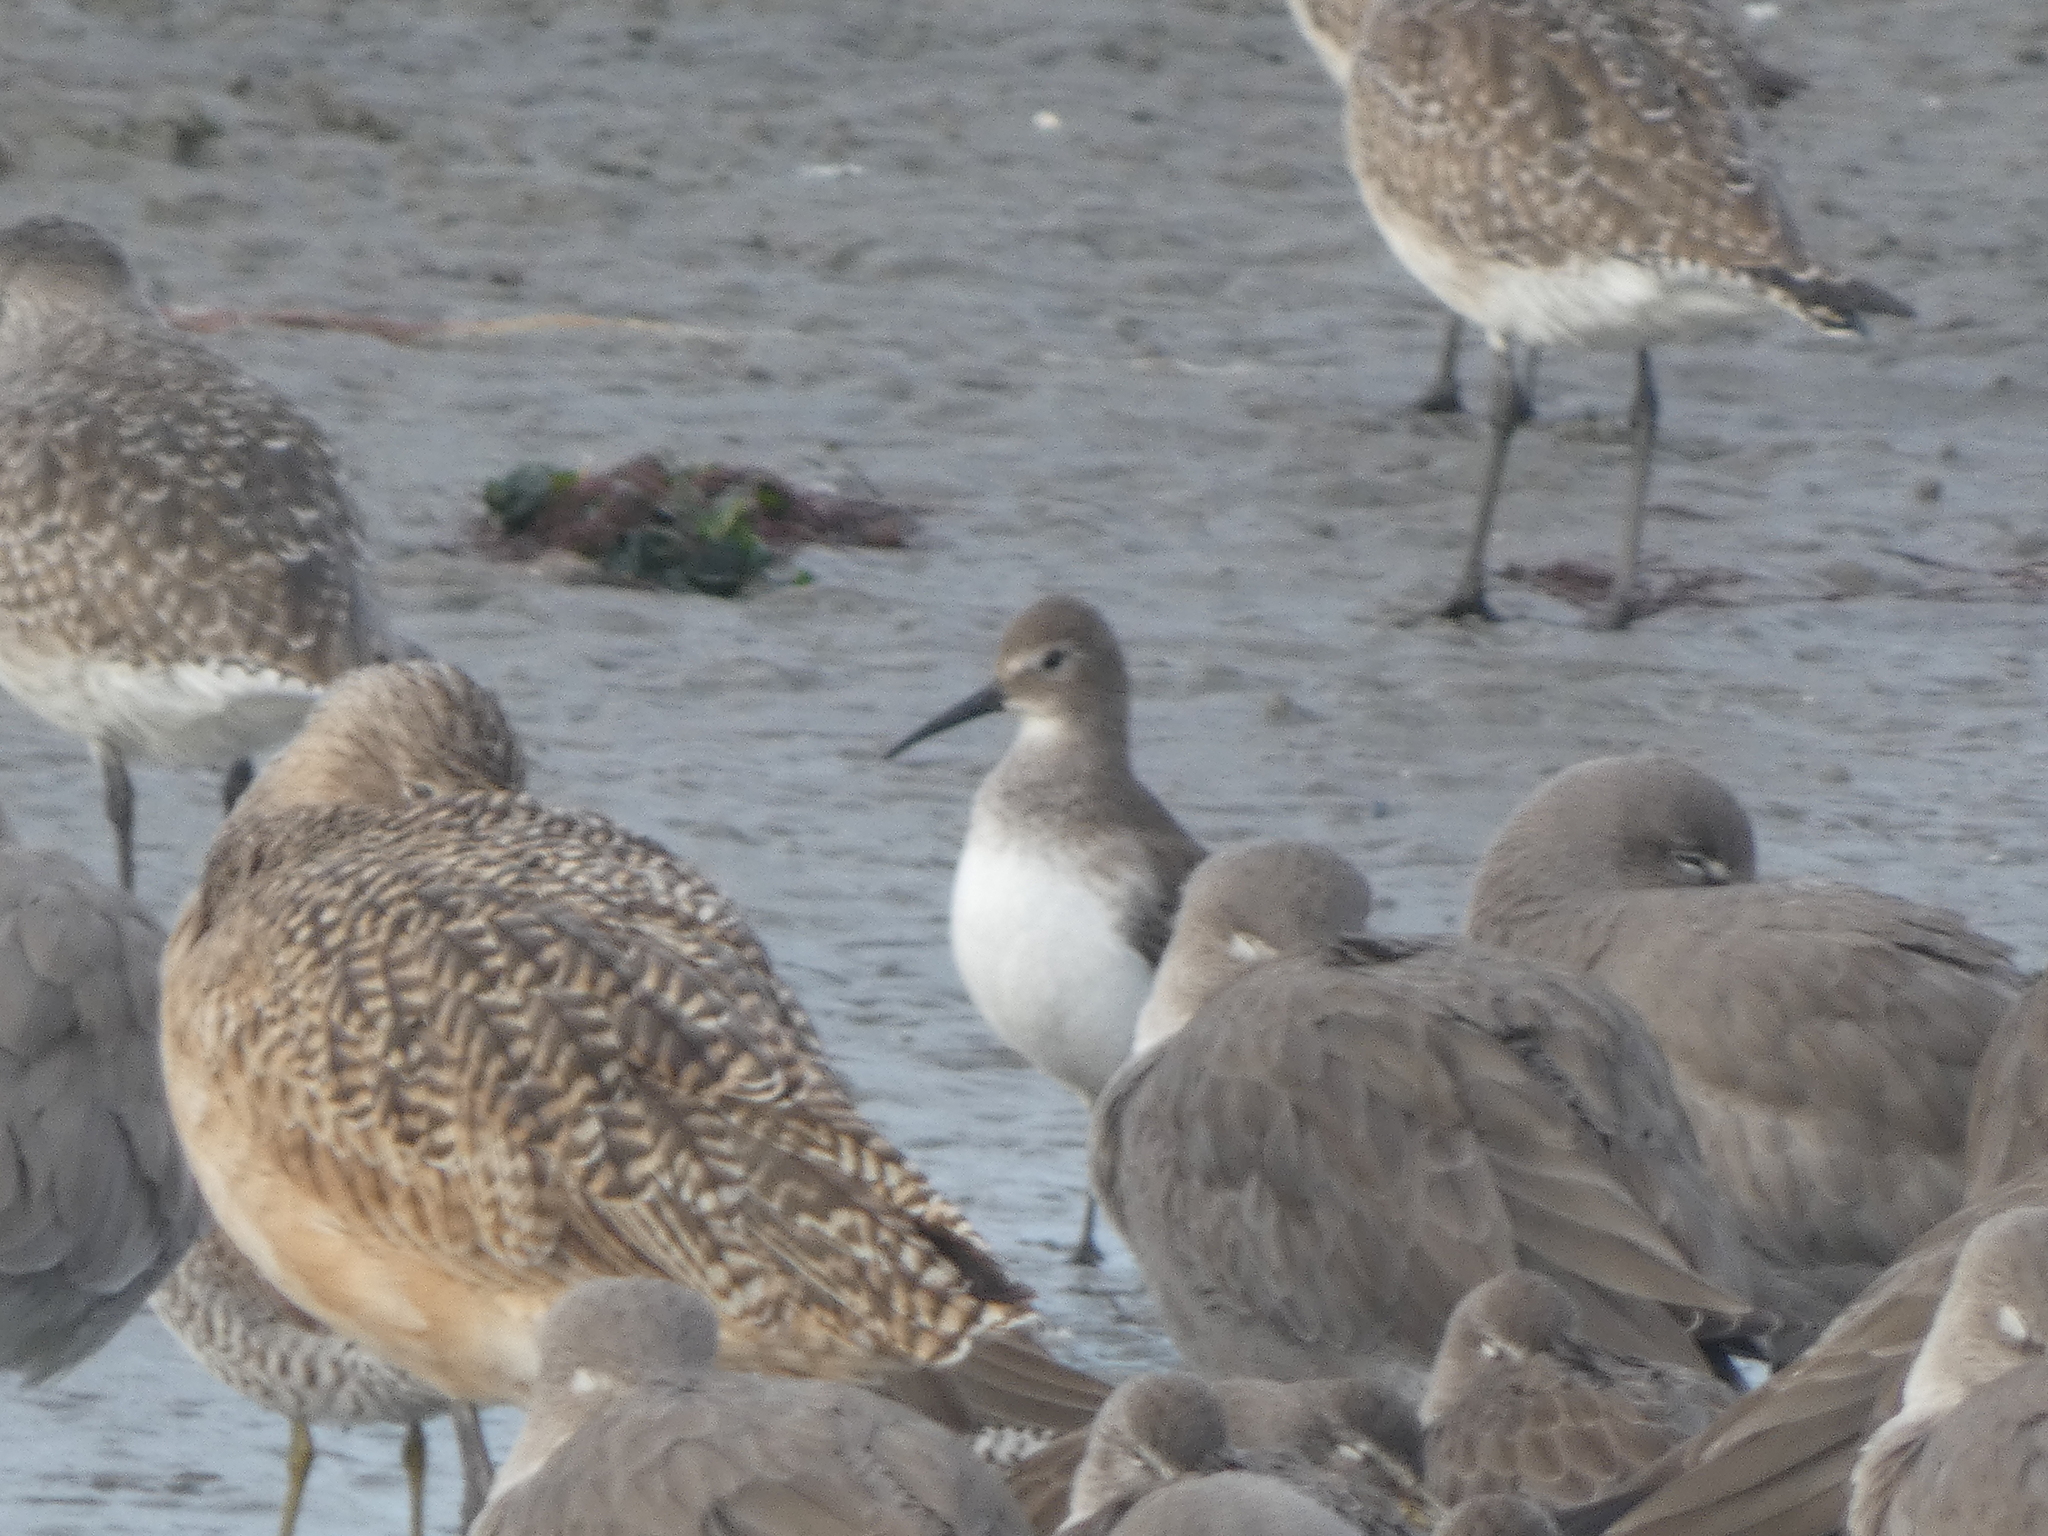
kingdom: Animalia
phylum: Chordata
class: Aves
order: Charadriiformes
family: Scolopacidae
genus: Calidris
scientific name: Calidris alpina
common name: Dunlin
